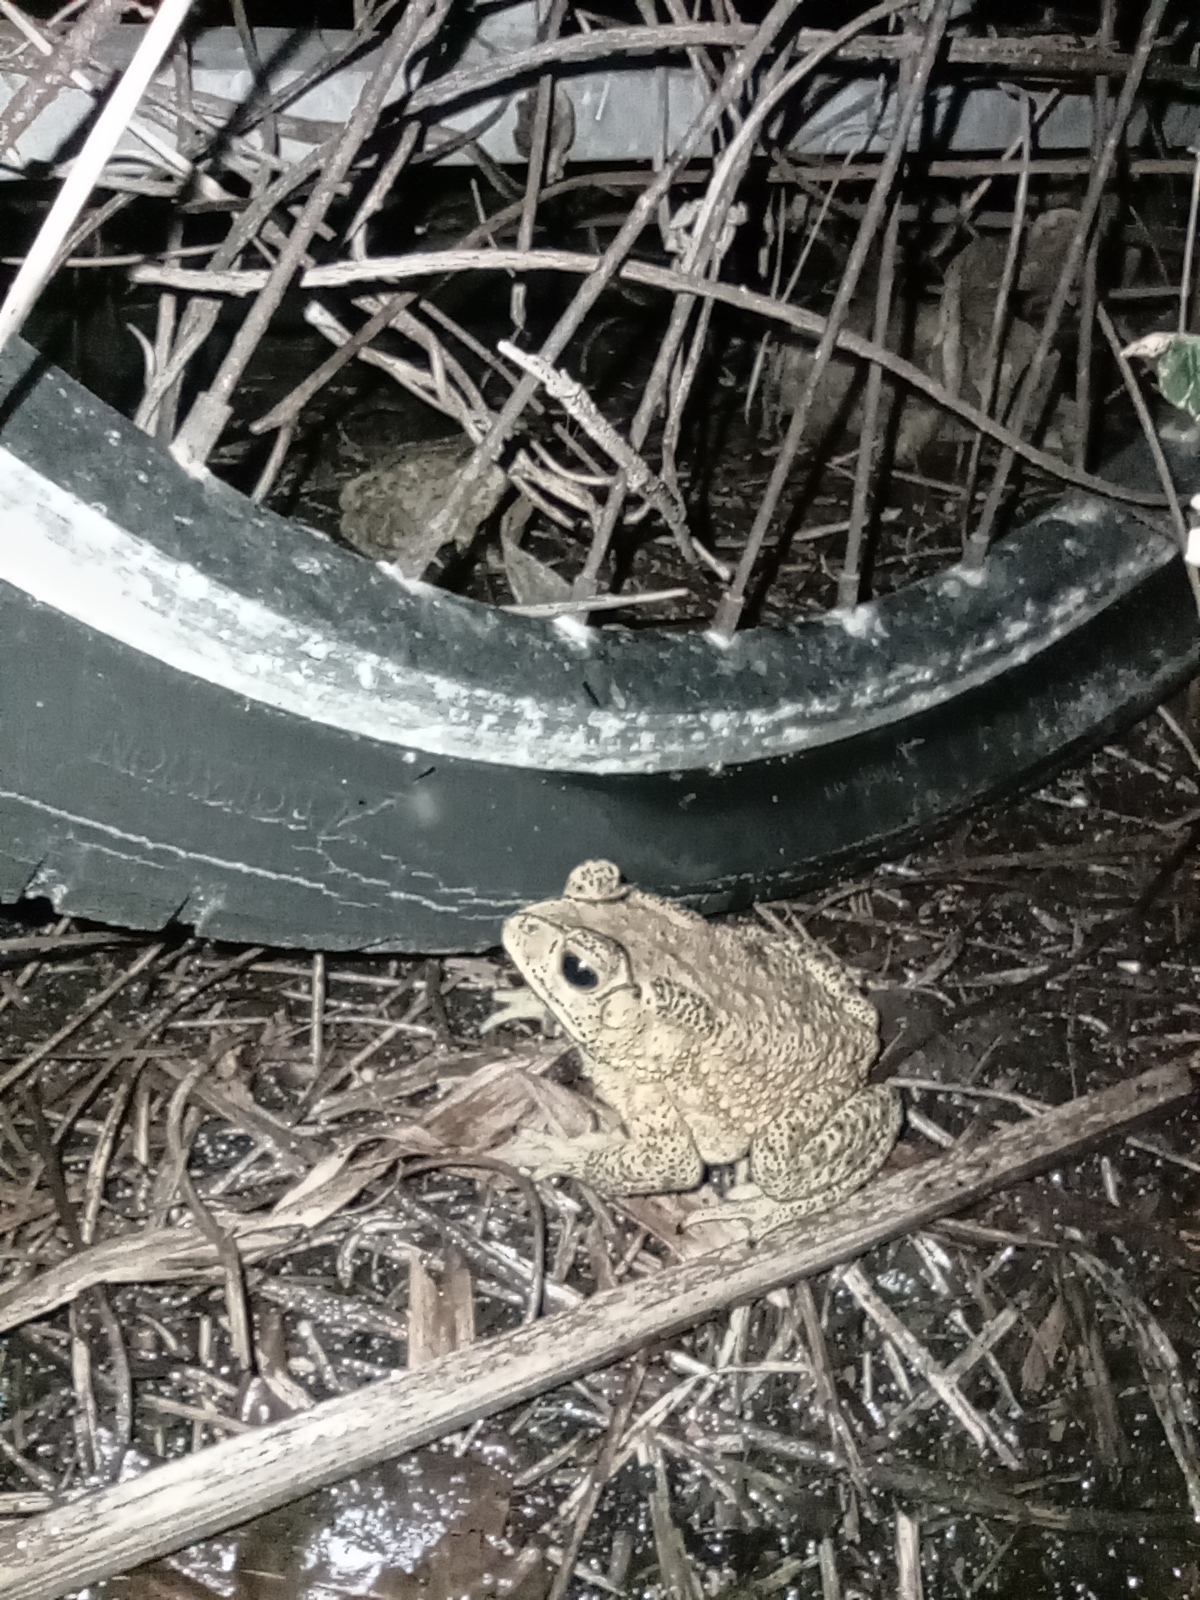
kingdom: Animalia
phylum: Chordata
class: Amphibia
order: Anura
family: Bufonidae
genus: Duttaphrynus
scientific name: Duttaphrynus melanostictus
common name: Common sunda toad
